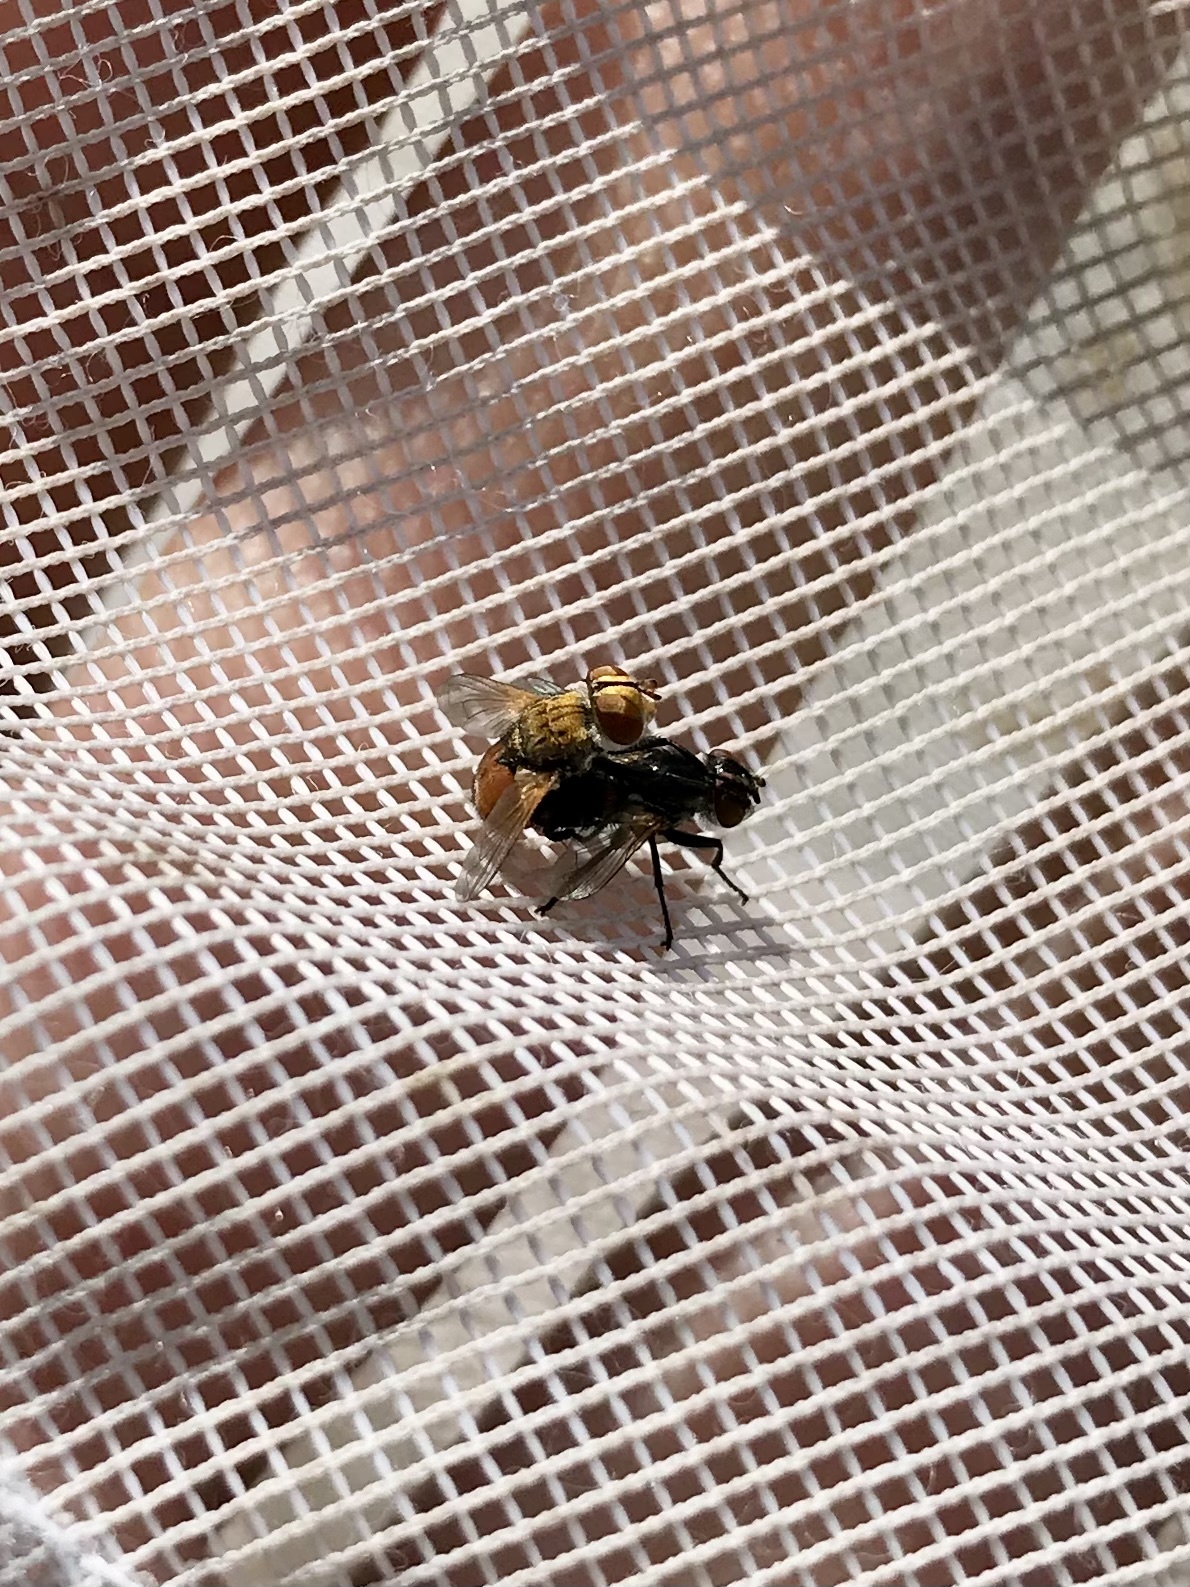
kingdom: Animalia
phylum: Arthropoda
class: Insecta
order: Diptera
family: Tachinidae
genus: Gymnoclytia
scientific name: Gymnoclytia immaculata
